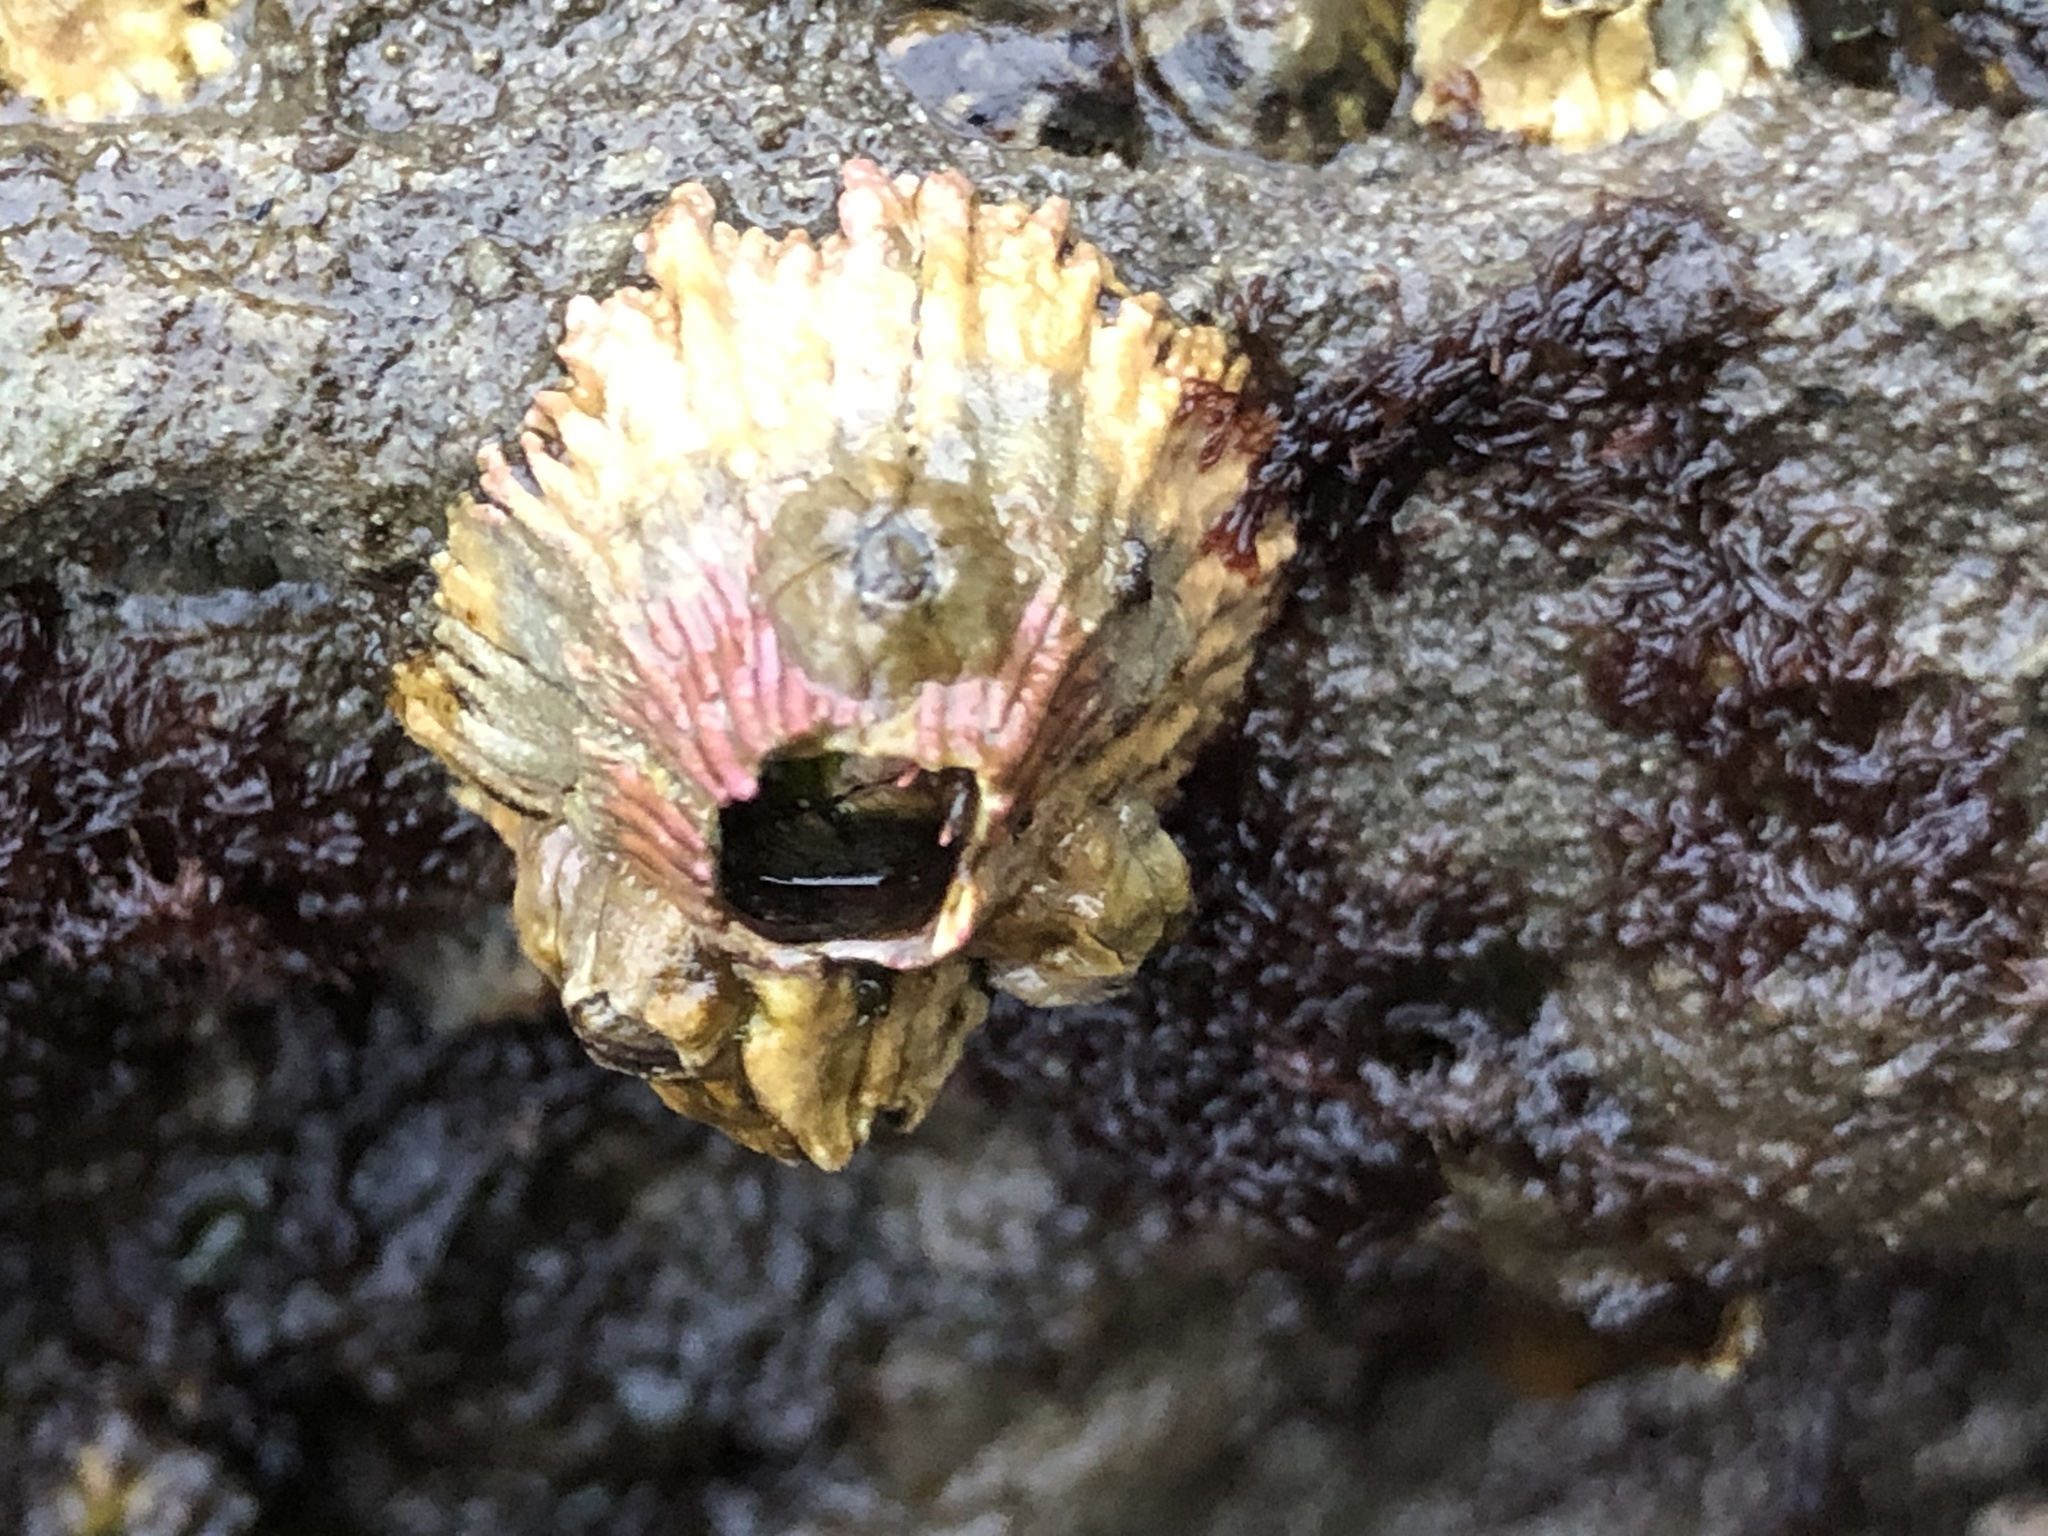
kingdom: Animalia
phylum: Arthropoda
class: Maxillopoda
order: Sessilia
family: Tetraclitidae
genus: Tetraclita
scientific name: Tetraclita rubescens
